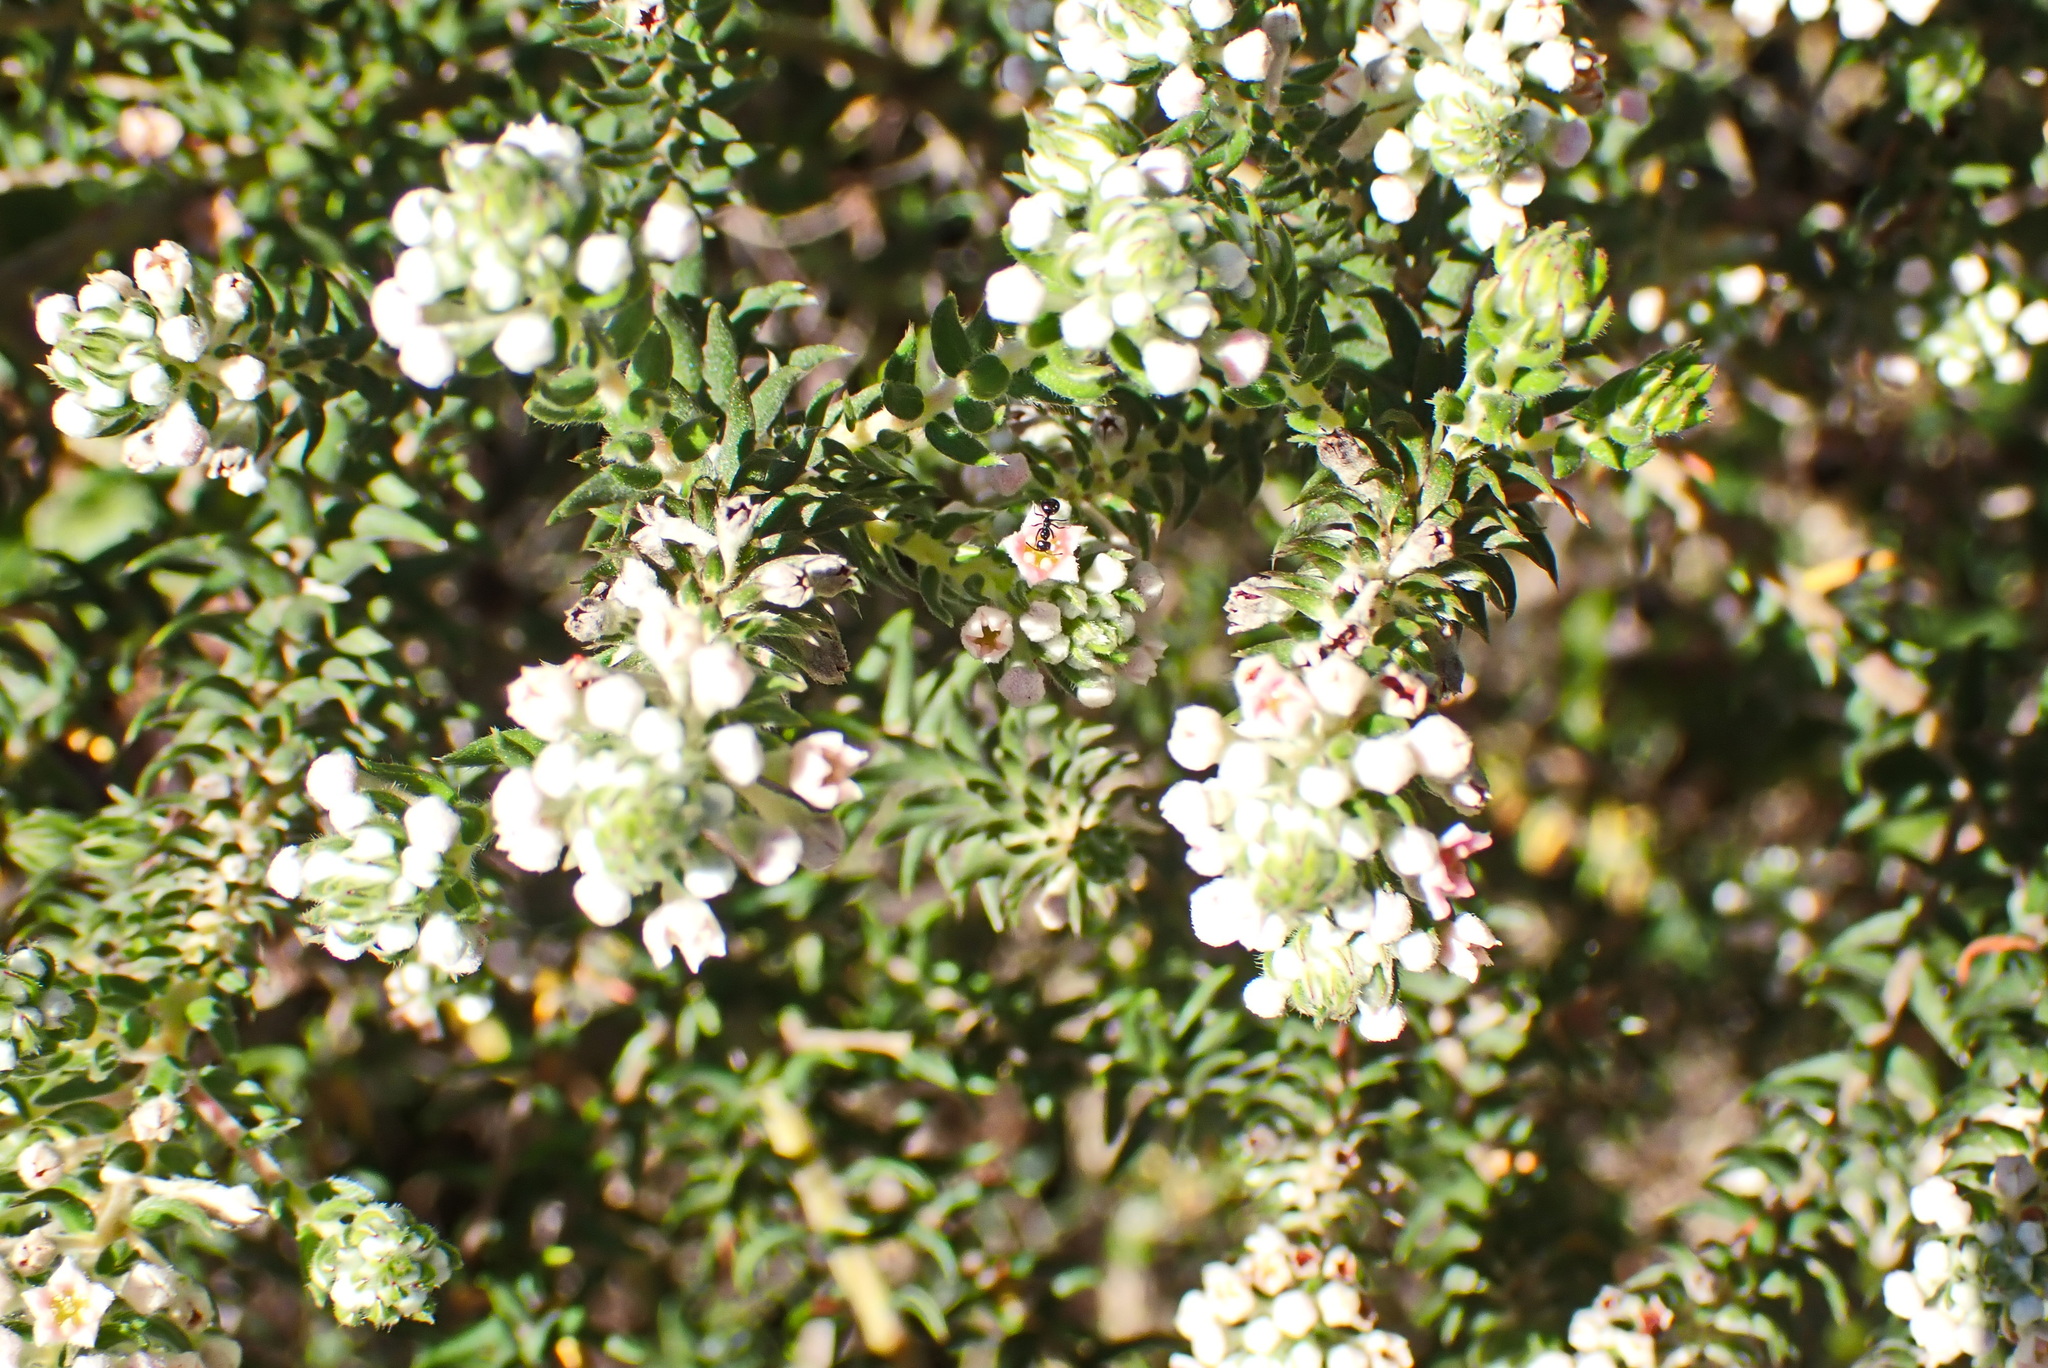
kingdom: Plantae
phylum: Tracheophyta
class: Magnoliopsida
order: Rosales
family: Rhamnaceae
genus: Phylica
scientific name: Phylica pinea
